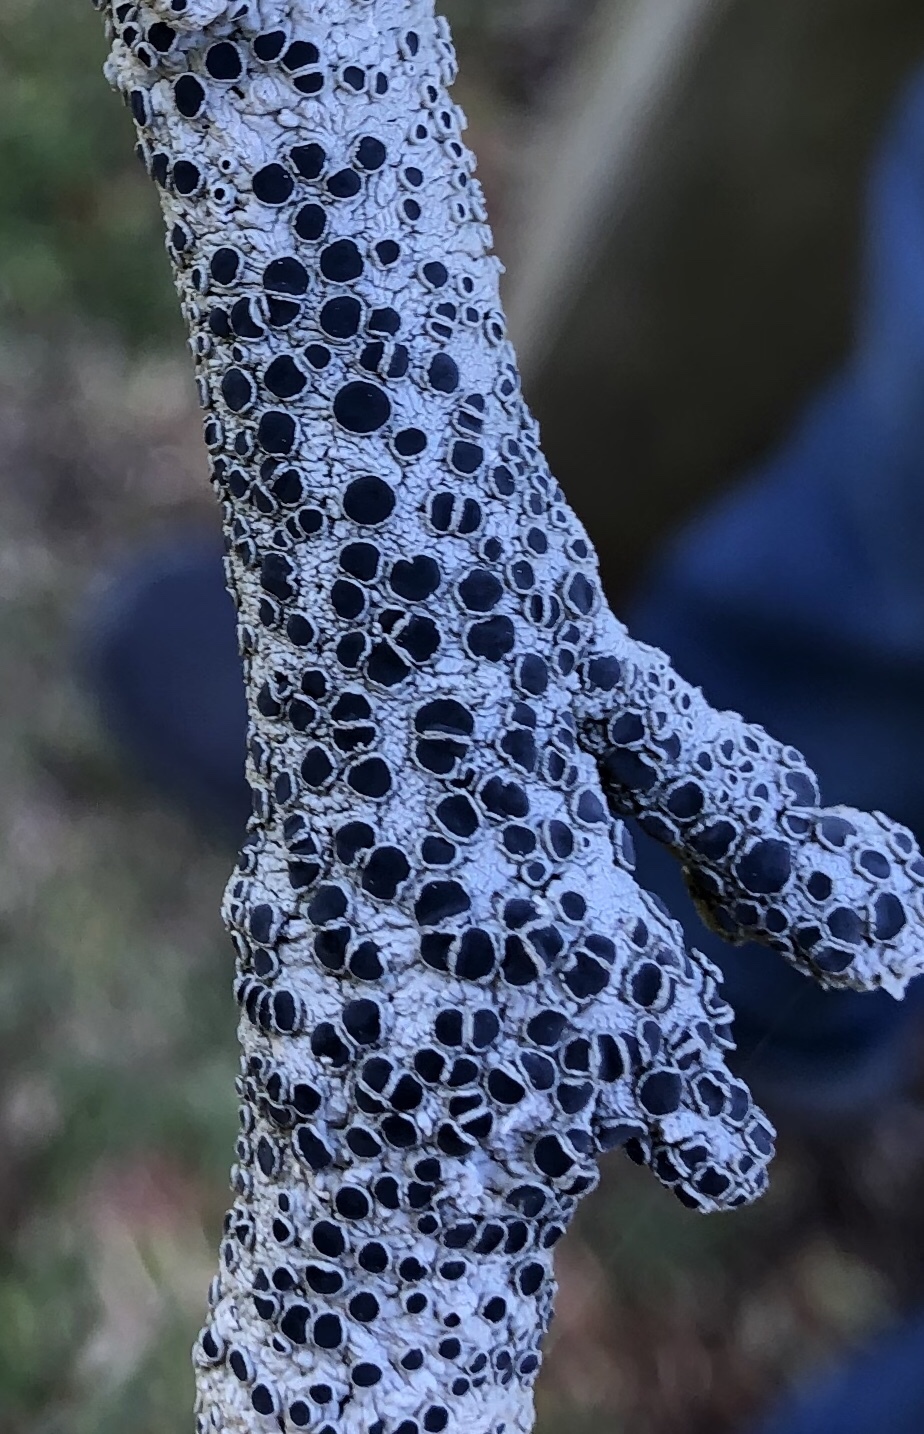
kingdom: Fungi
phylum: Ascomycota
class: Lecanoromycetes
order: Caliciales
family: Physciaceae
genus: Physcia
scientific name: Physcia millegrana
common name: Rosette lichen
